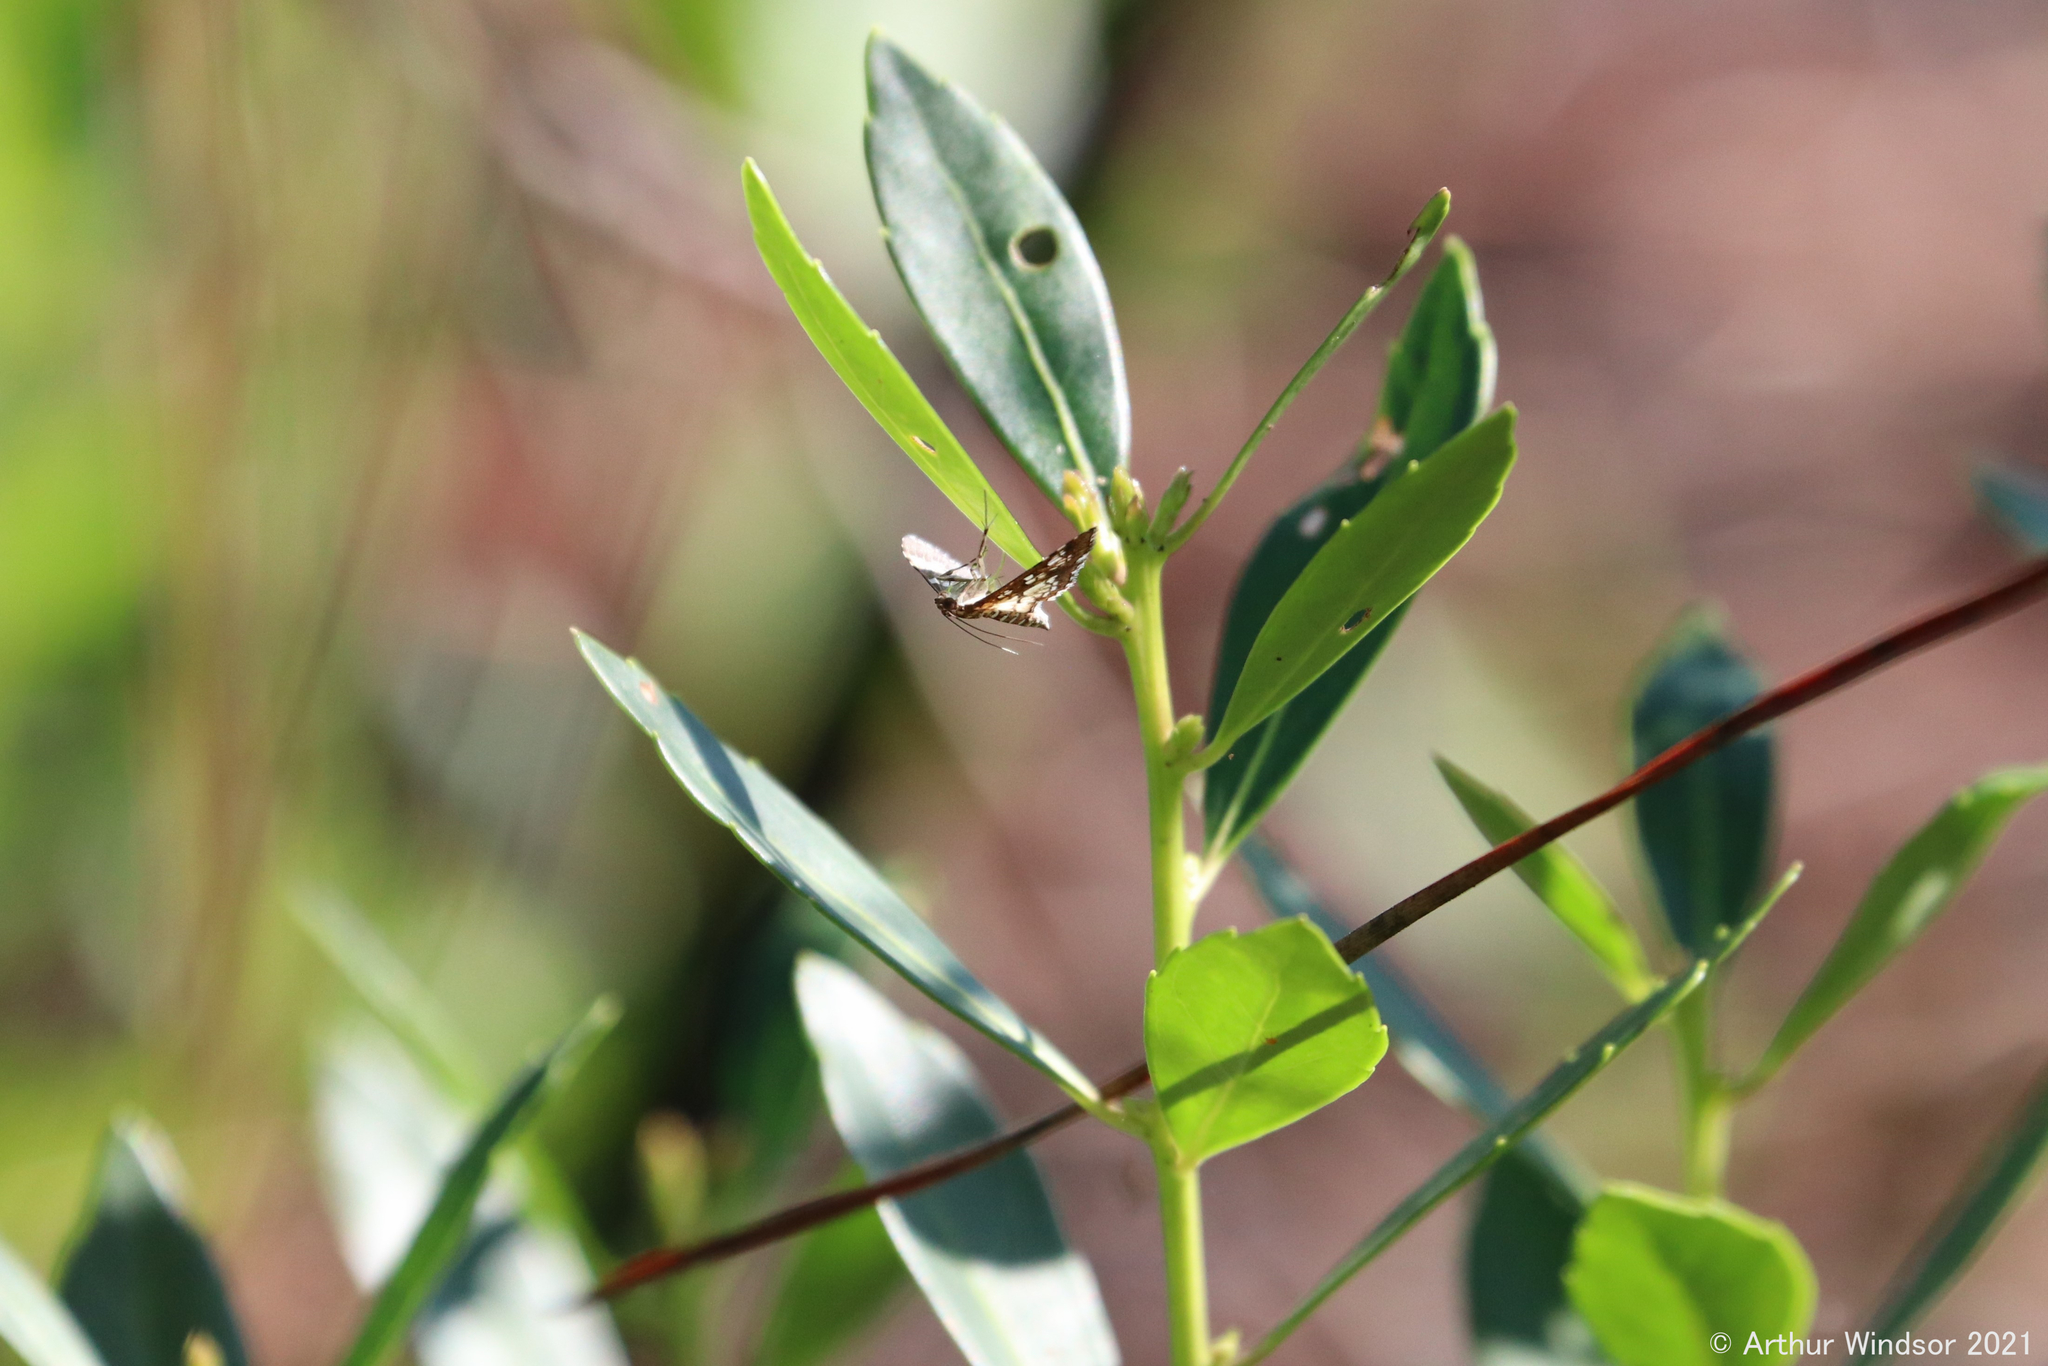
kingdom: Animalia
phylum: Arthropoda
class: Insecta
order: Lepidoptera
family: Crambidae
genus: Samea
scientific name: Samea ecclesialis
